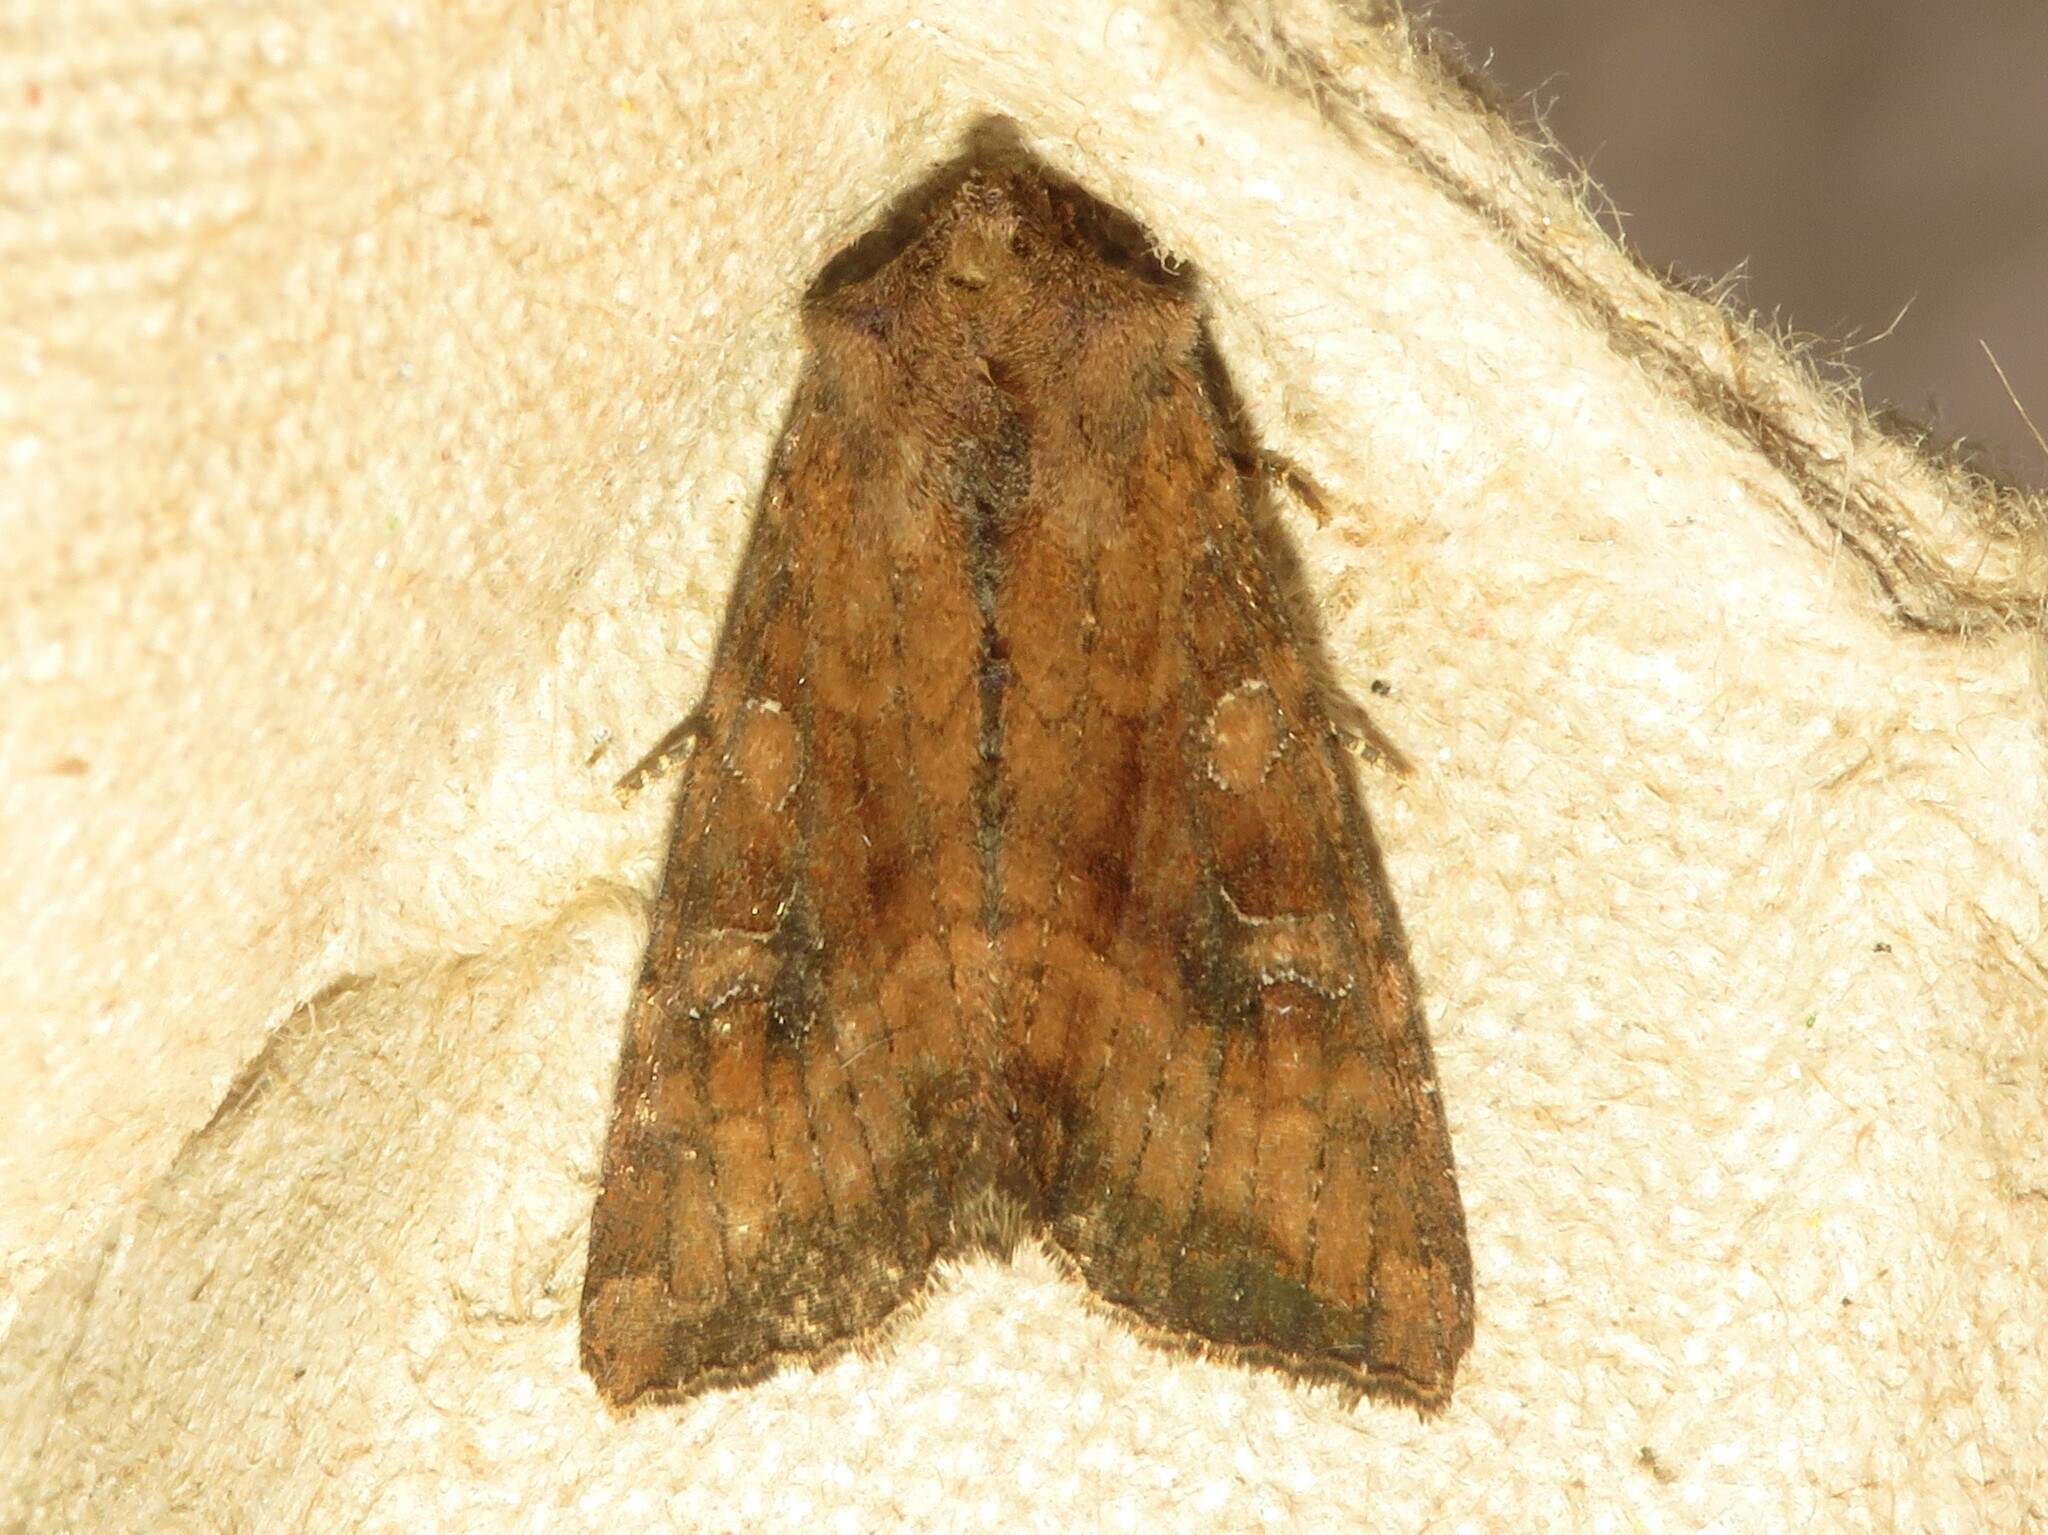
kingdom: Animalia
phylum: Arthropoda
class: Insecta
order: Lepidoptera
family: Noctuidae
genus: Loscopia
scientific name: Loscopia velata
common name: Veiled ear moth
